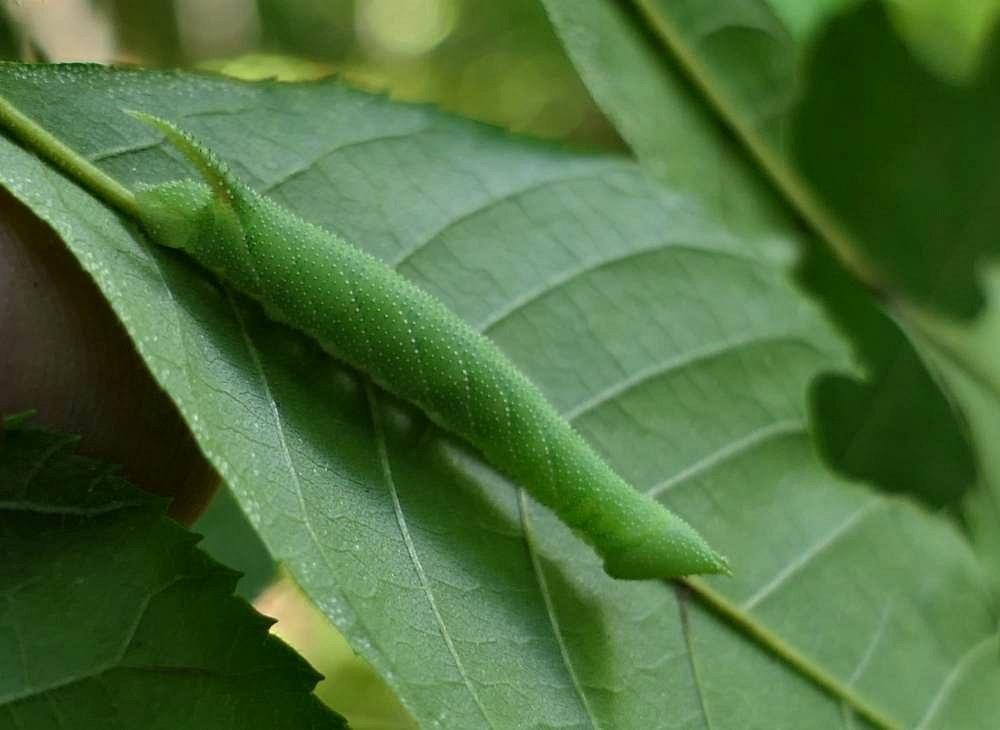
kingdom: Animalia
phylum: Arthropoda
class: Insecta
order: Lepidoptera
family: Sphingidae
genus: Amorpha
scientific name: Amorpha juglandis
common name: Walnut sphinx
